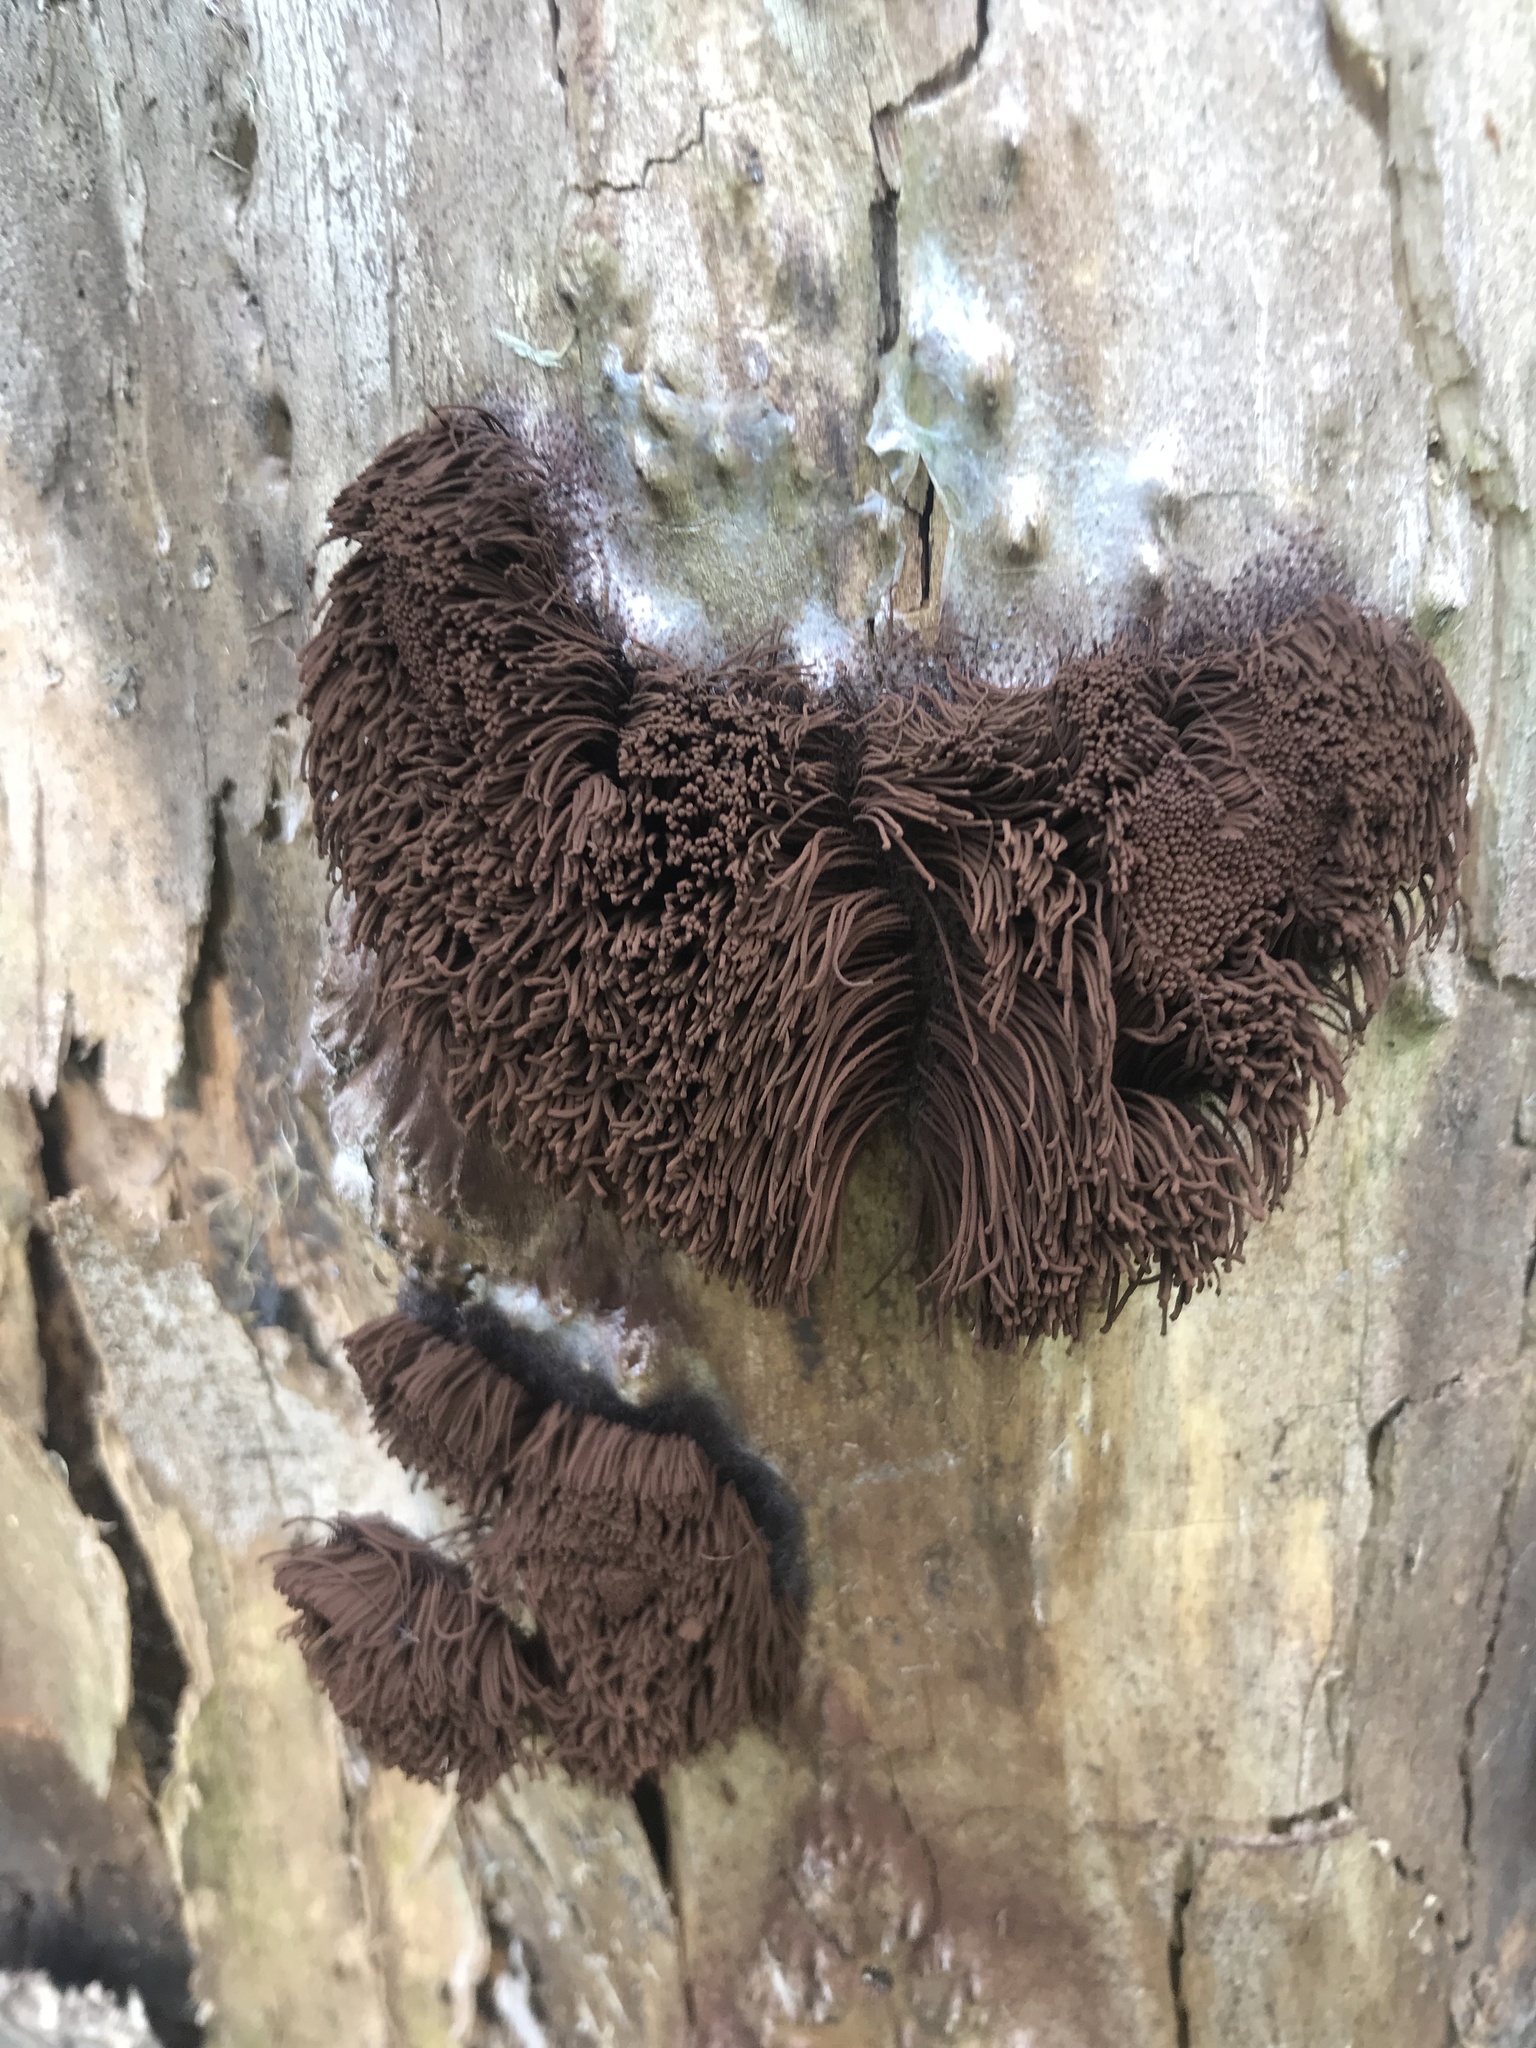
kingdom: Protozoa
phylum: Mycetozoa
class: Myxomycetes
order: Stemonitidales
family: Stemonitidaceae
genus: Stemonitis
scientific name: Stemonitis splendens
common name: Chocolate tube slime
